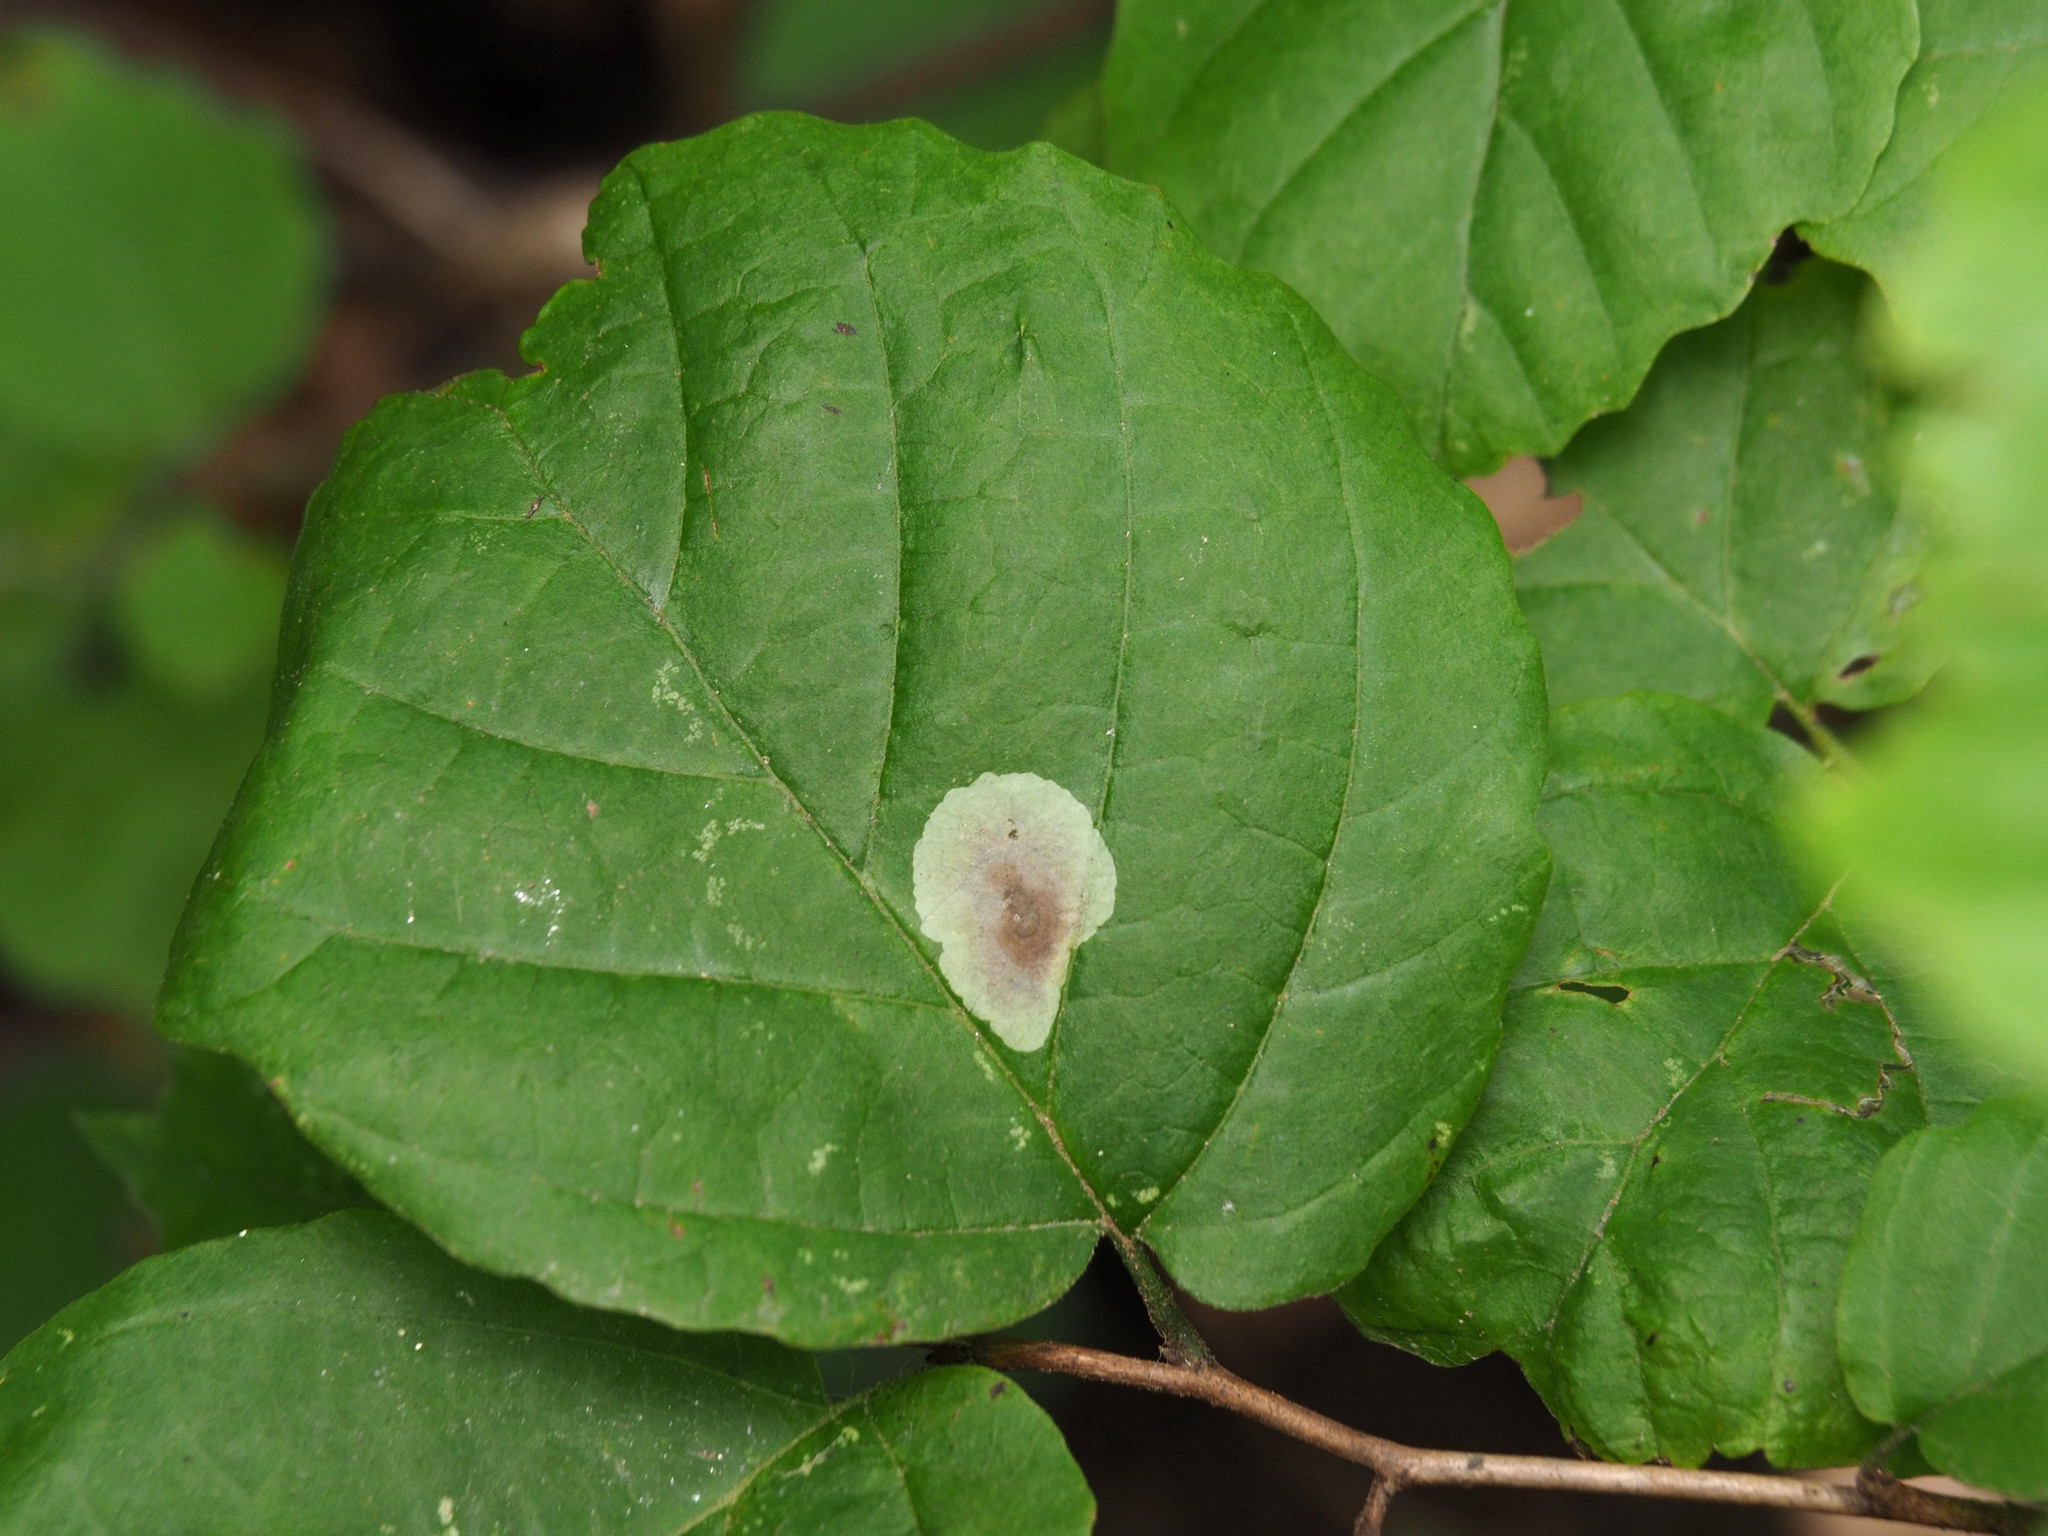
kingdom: Animalia
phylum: Arthropoda
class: Insecta
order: Lepidoptera
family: Gracillariidae
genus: Cameraria
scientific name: Cameraria hamameliella
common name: Witchhazel leafminer
